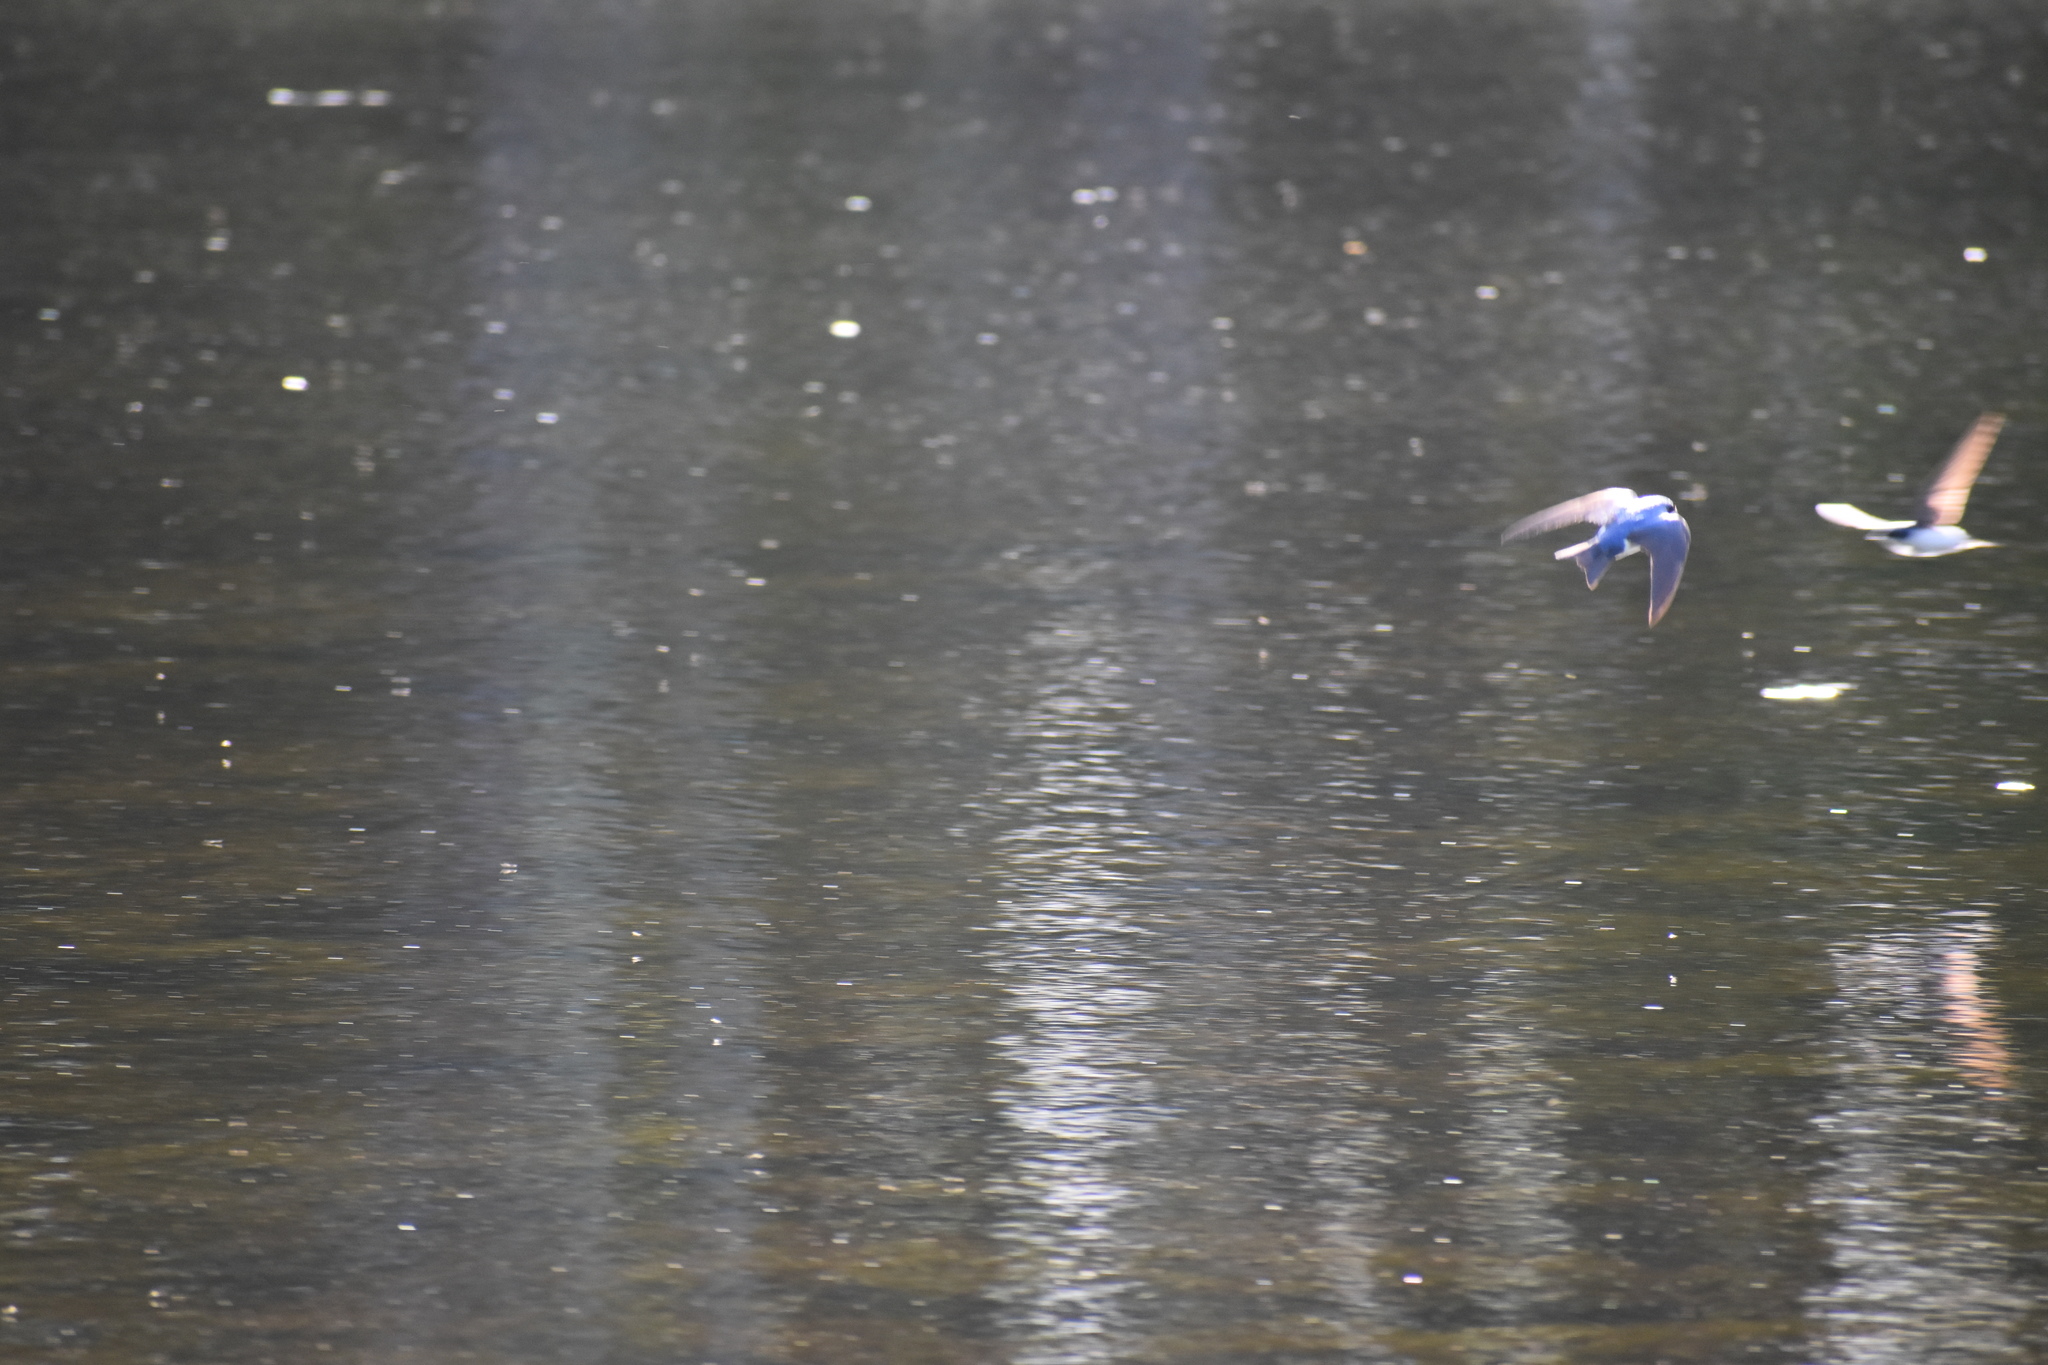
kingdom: Animalia
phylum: Chordata
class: Aves
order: Passeriformes
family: Hirundinidae
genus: Tachycineta
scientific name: Tachycineta bicolor
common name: Tree swallow
